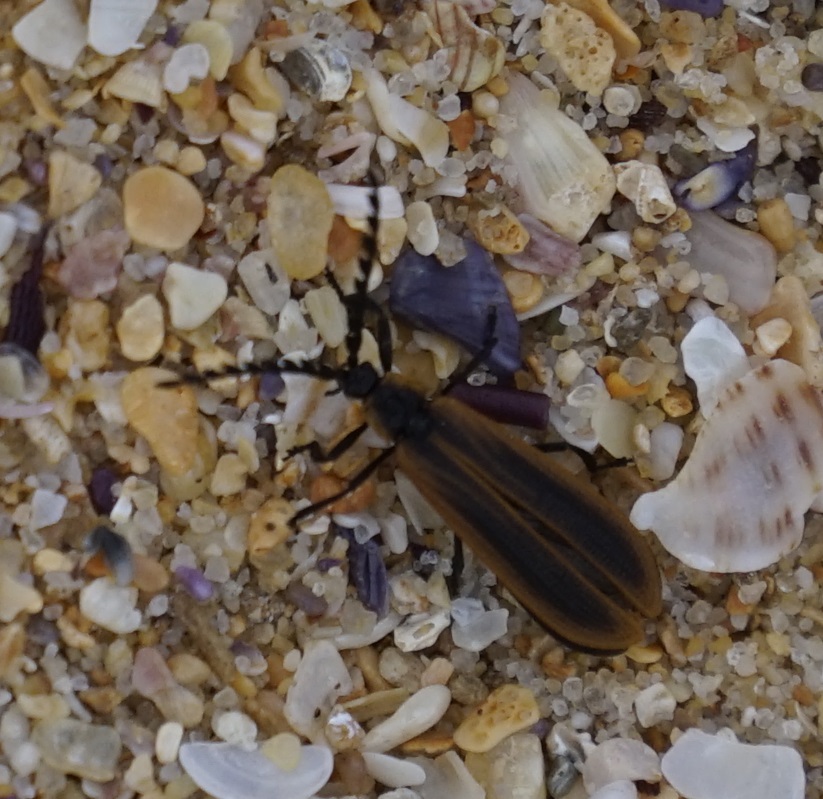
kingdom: Animalia
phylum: Arthropoda
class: Insecta
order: Coleoptera
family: Lycidae
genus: Trichalus
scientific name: Trichalus
